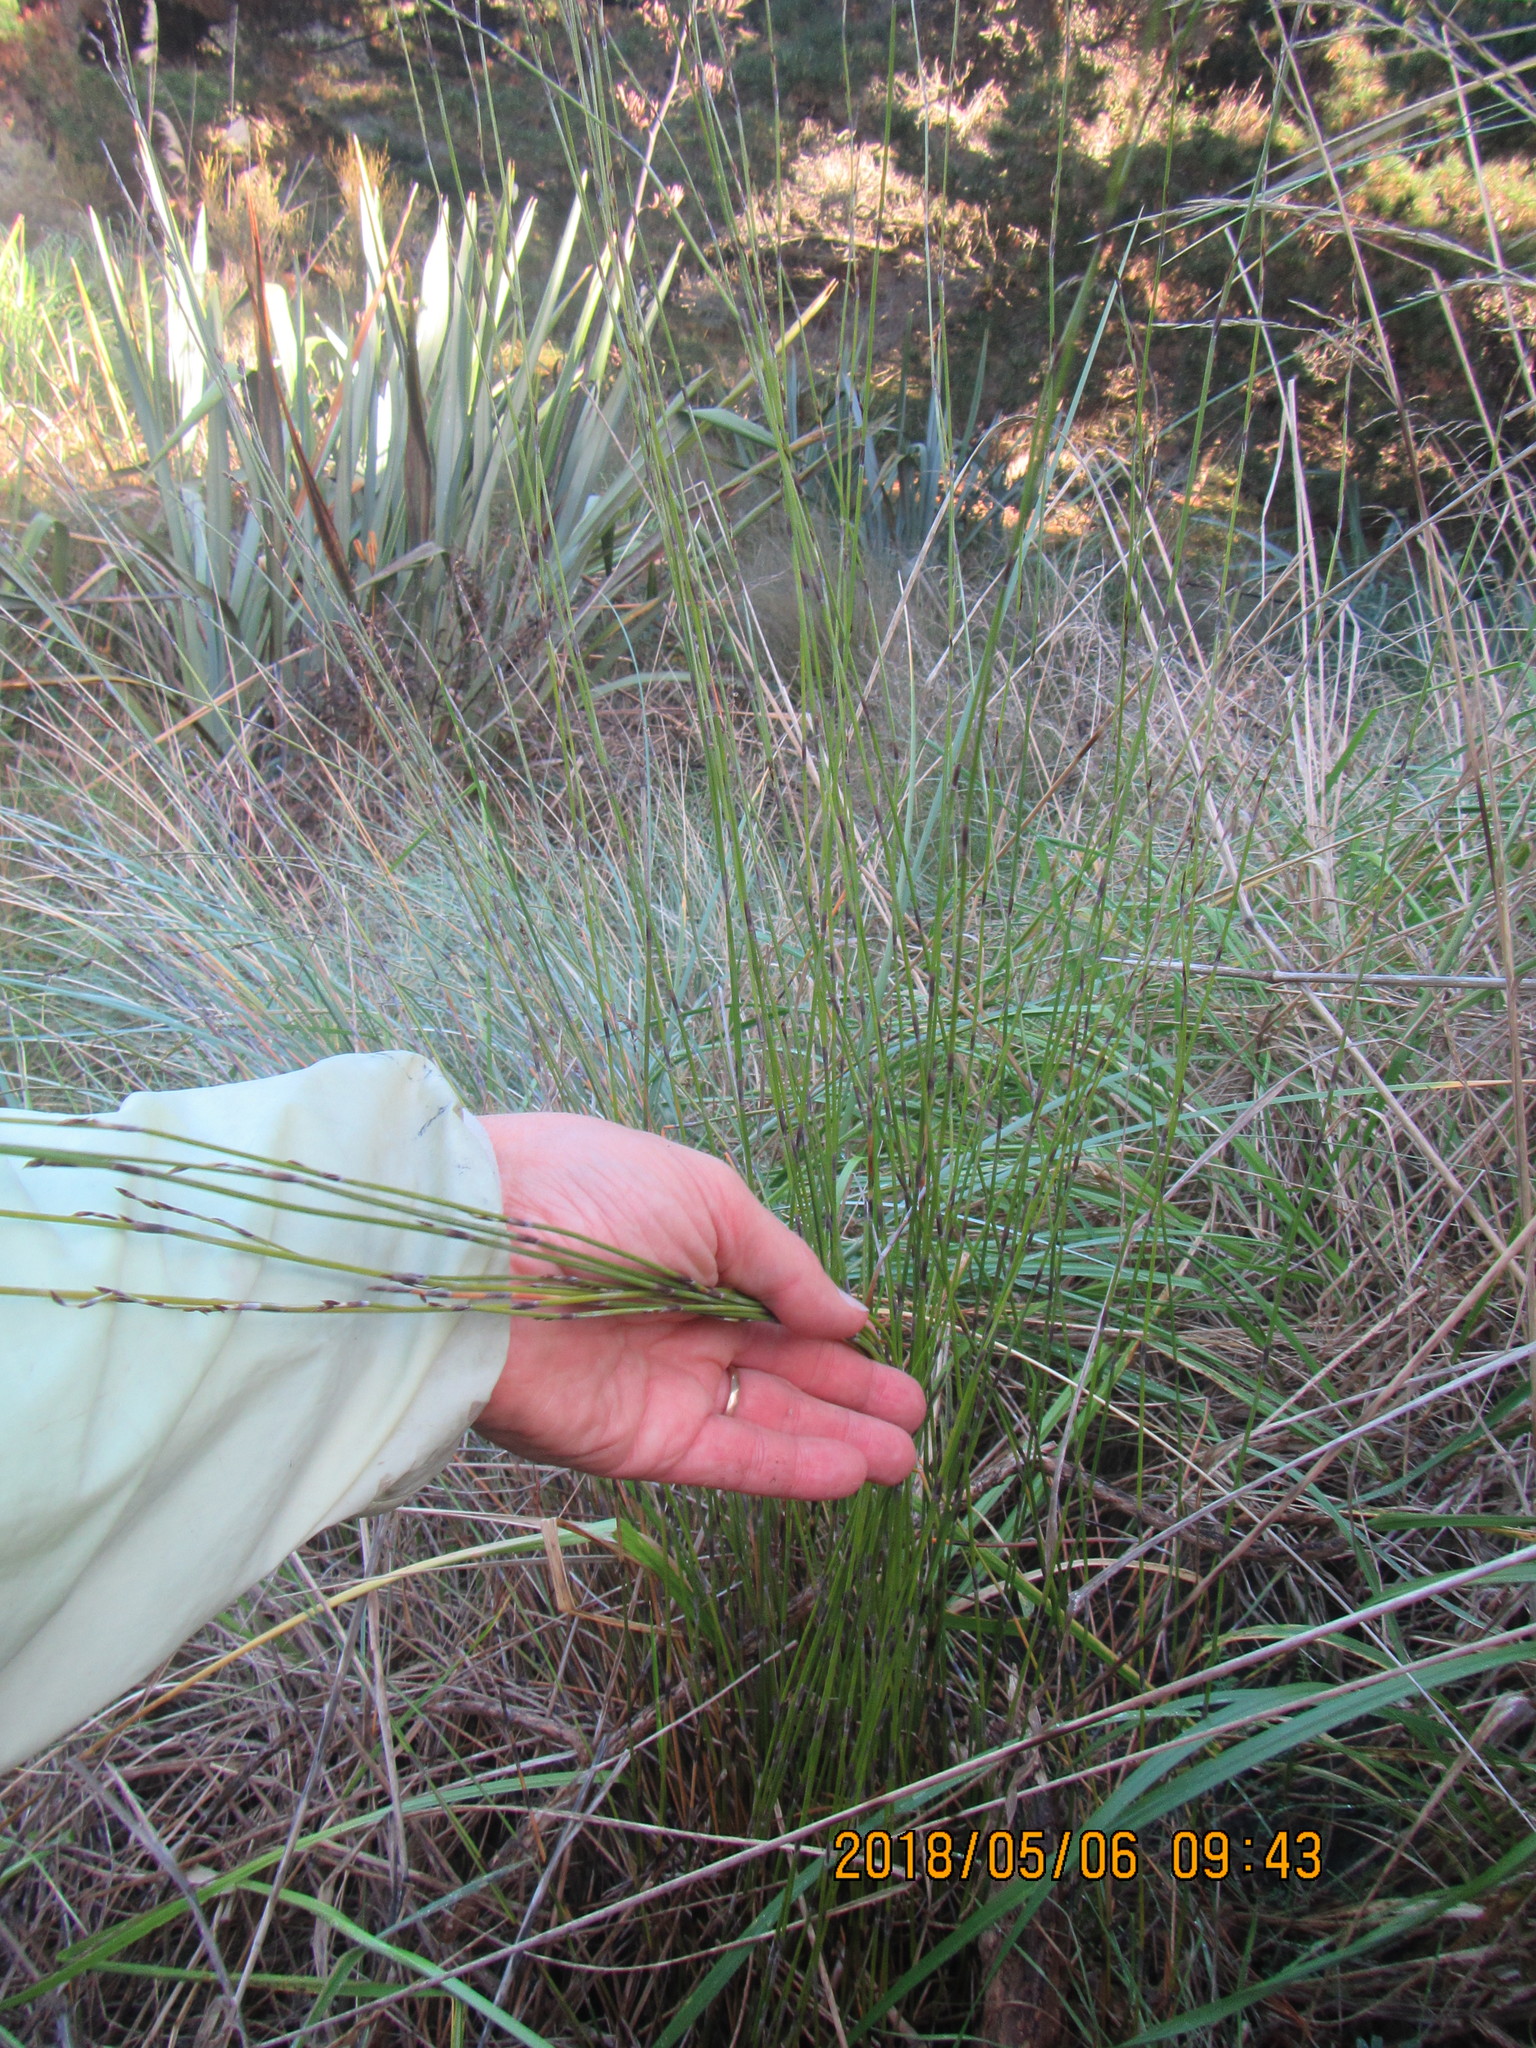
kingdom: Plantae
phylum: Tracheophyta
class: Liliopsida
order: Poales
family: Restionaceae
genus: Apodasmia
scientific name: Apodasmia similis
